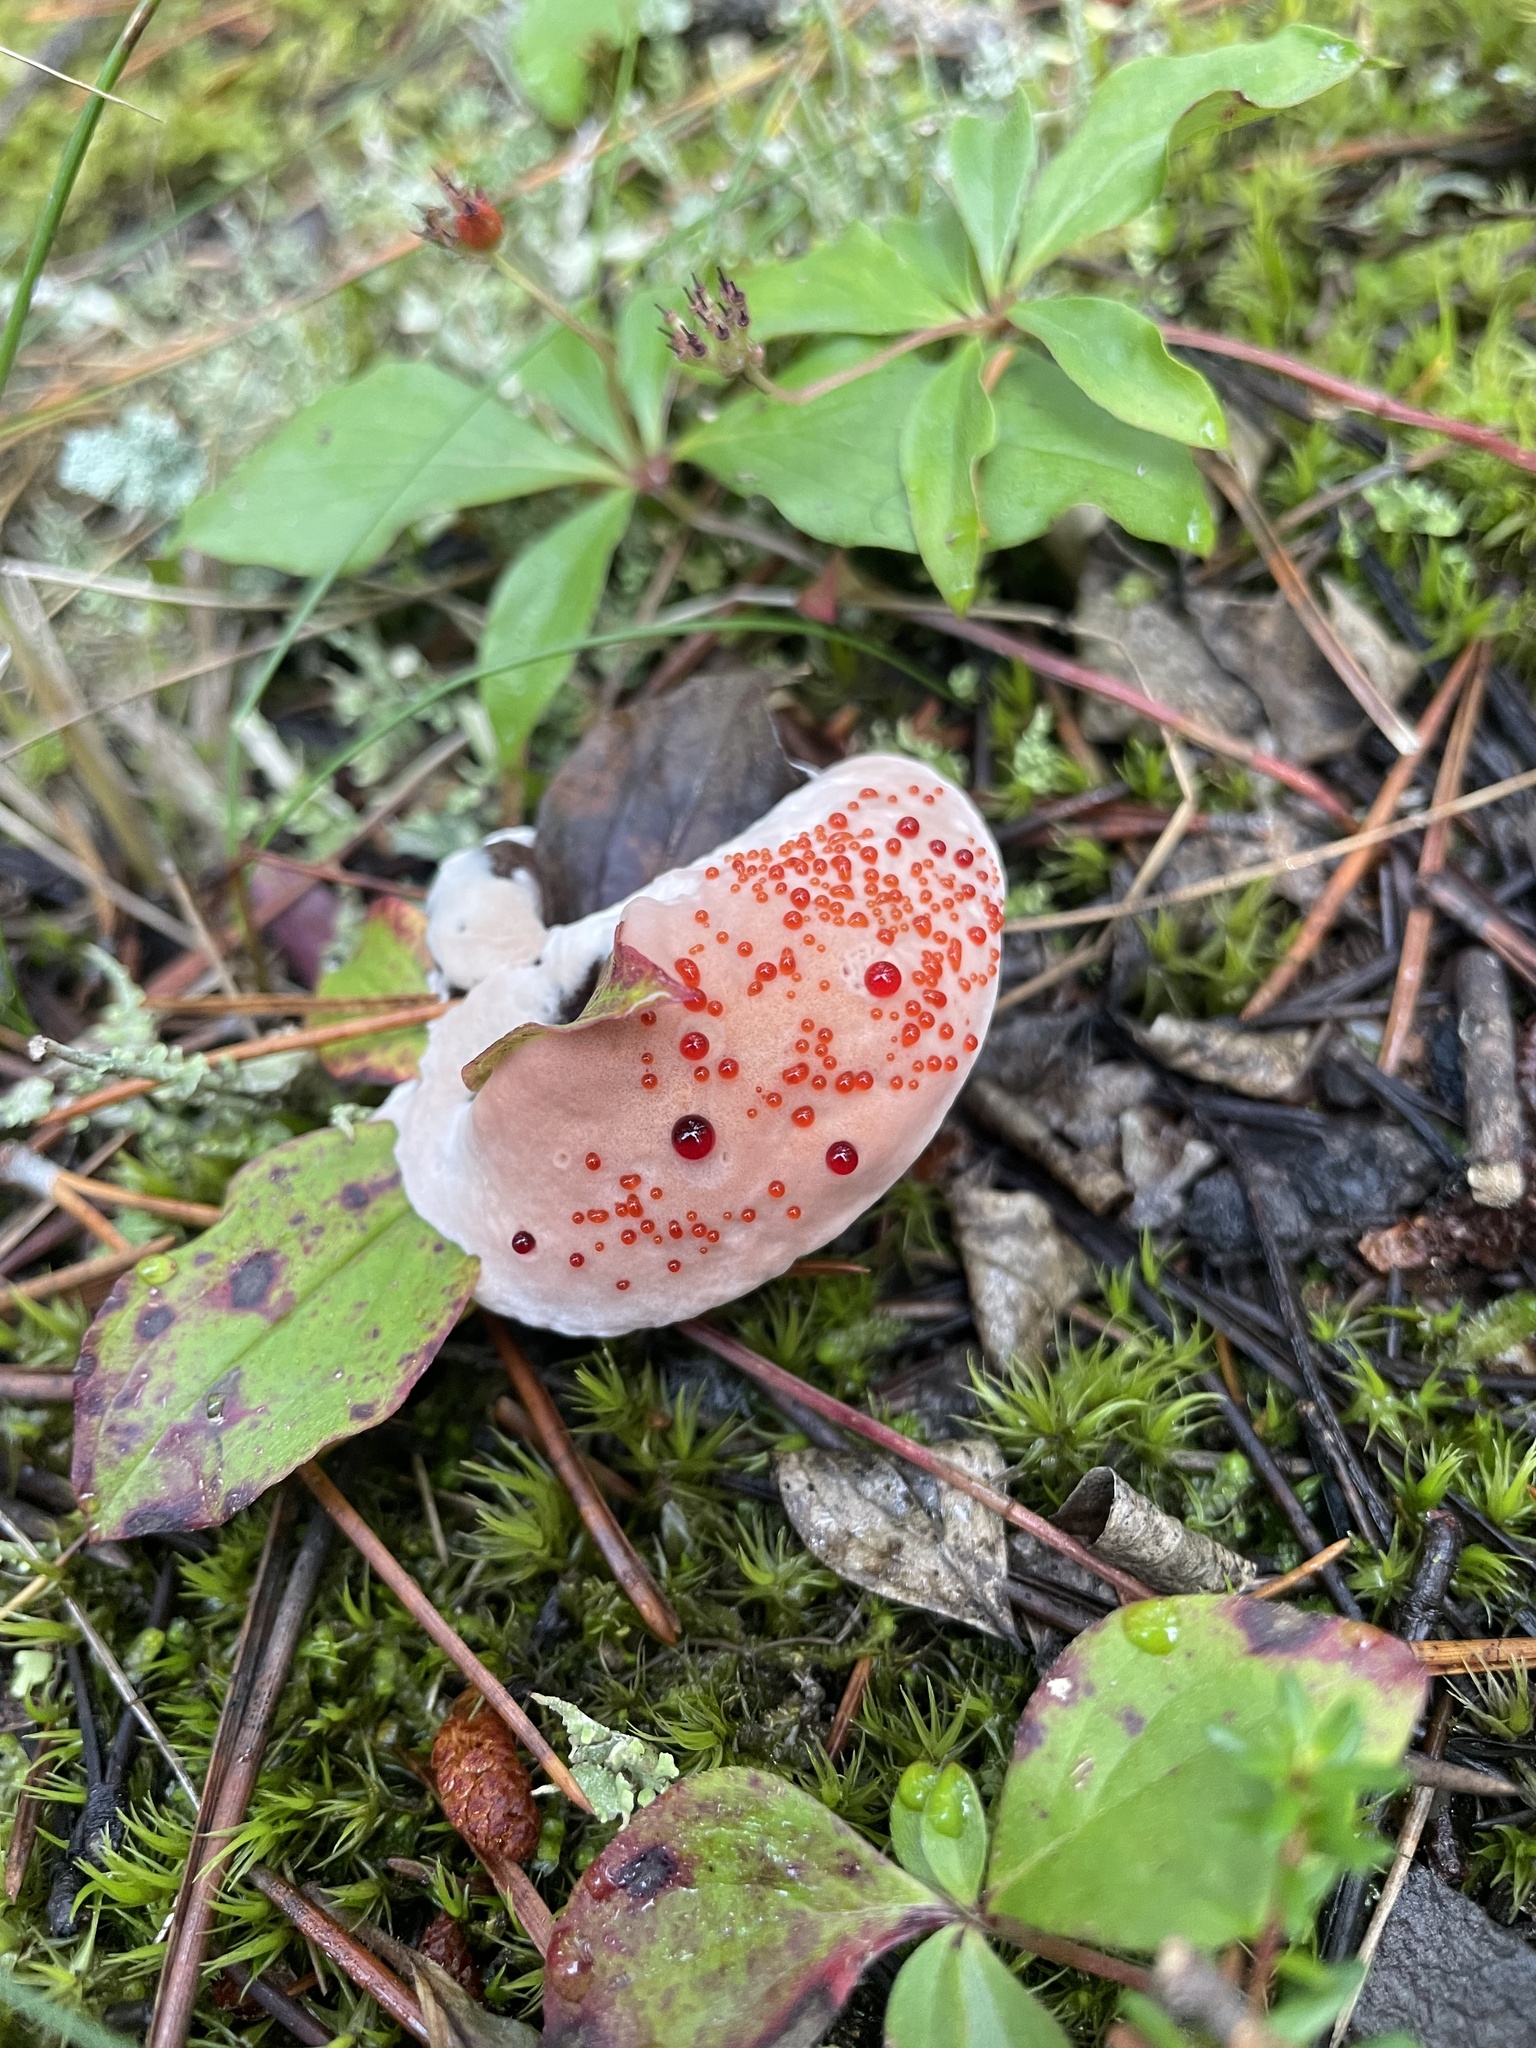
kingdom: Fungi
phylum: Basidiomycota
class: Agaricomycetes
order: Thelephorales
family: Bankeraceae
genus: Hydnellum
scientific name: Hydnellum peckii
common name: Devil's tooth
